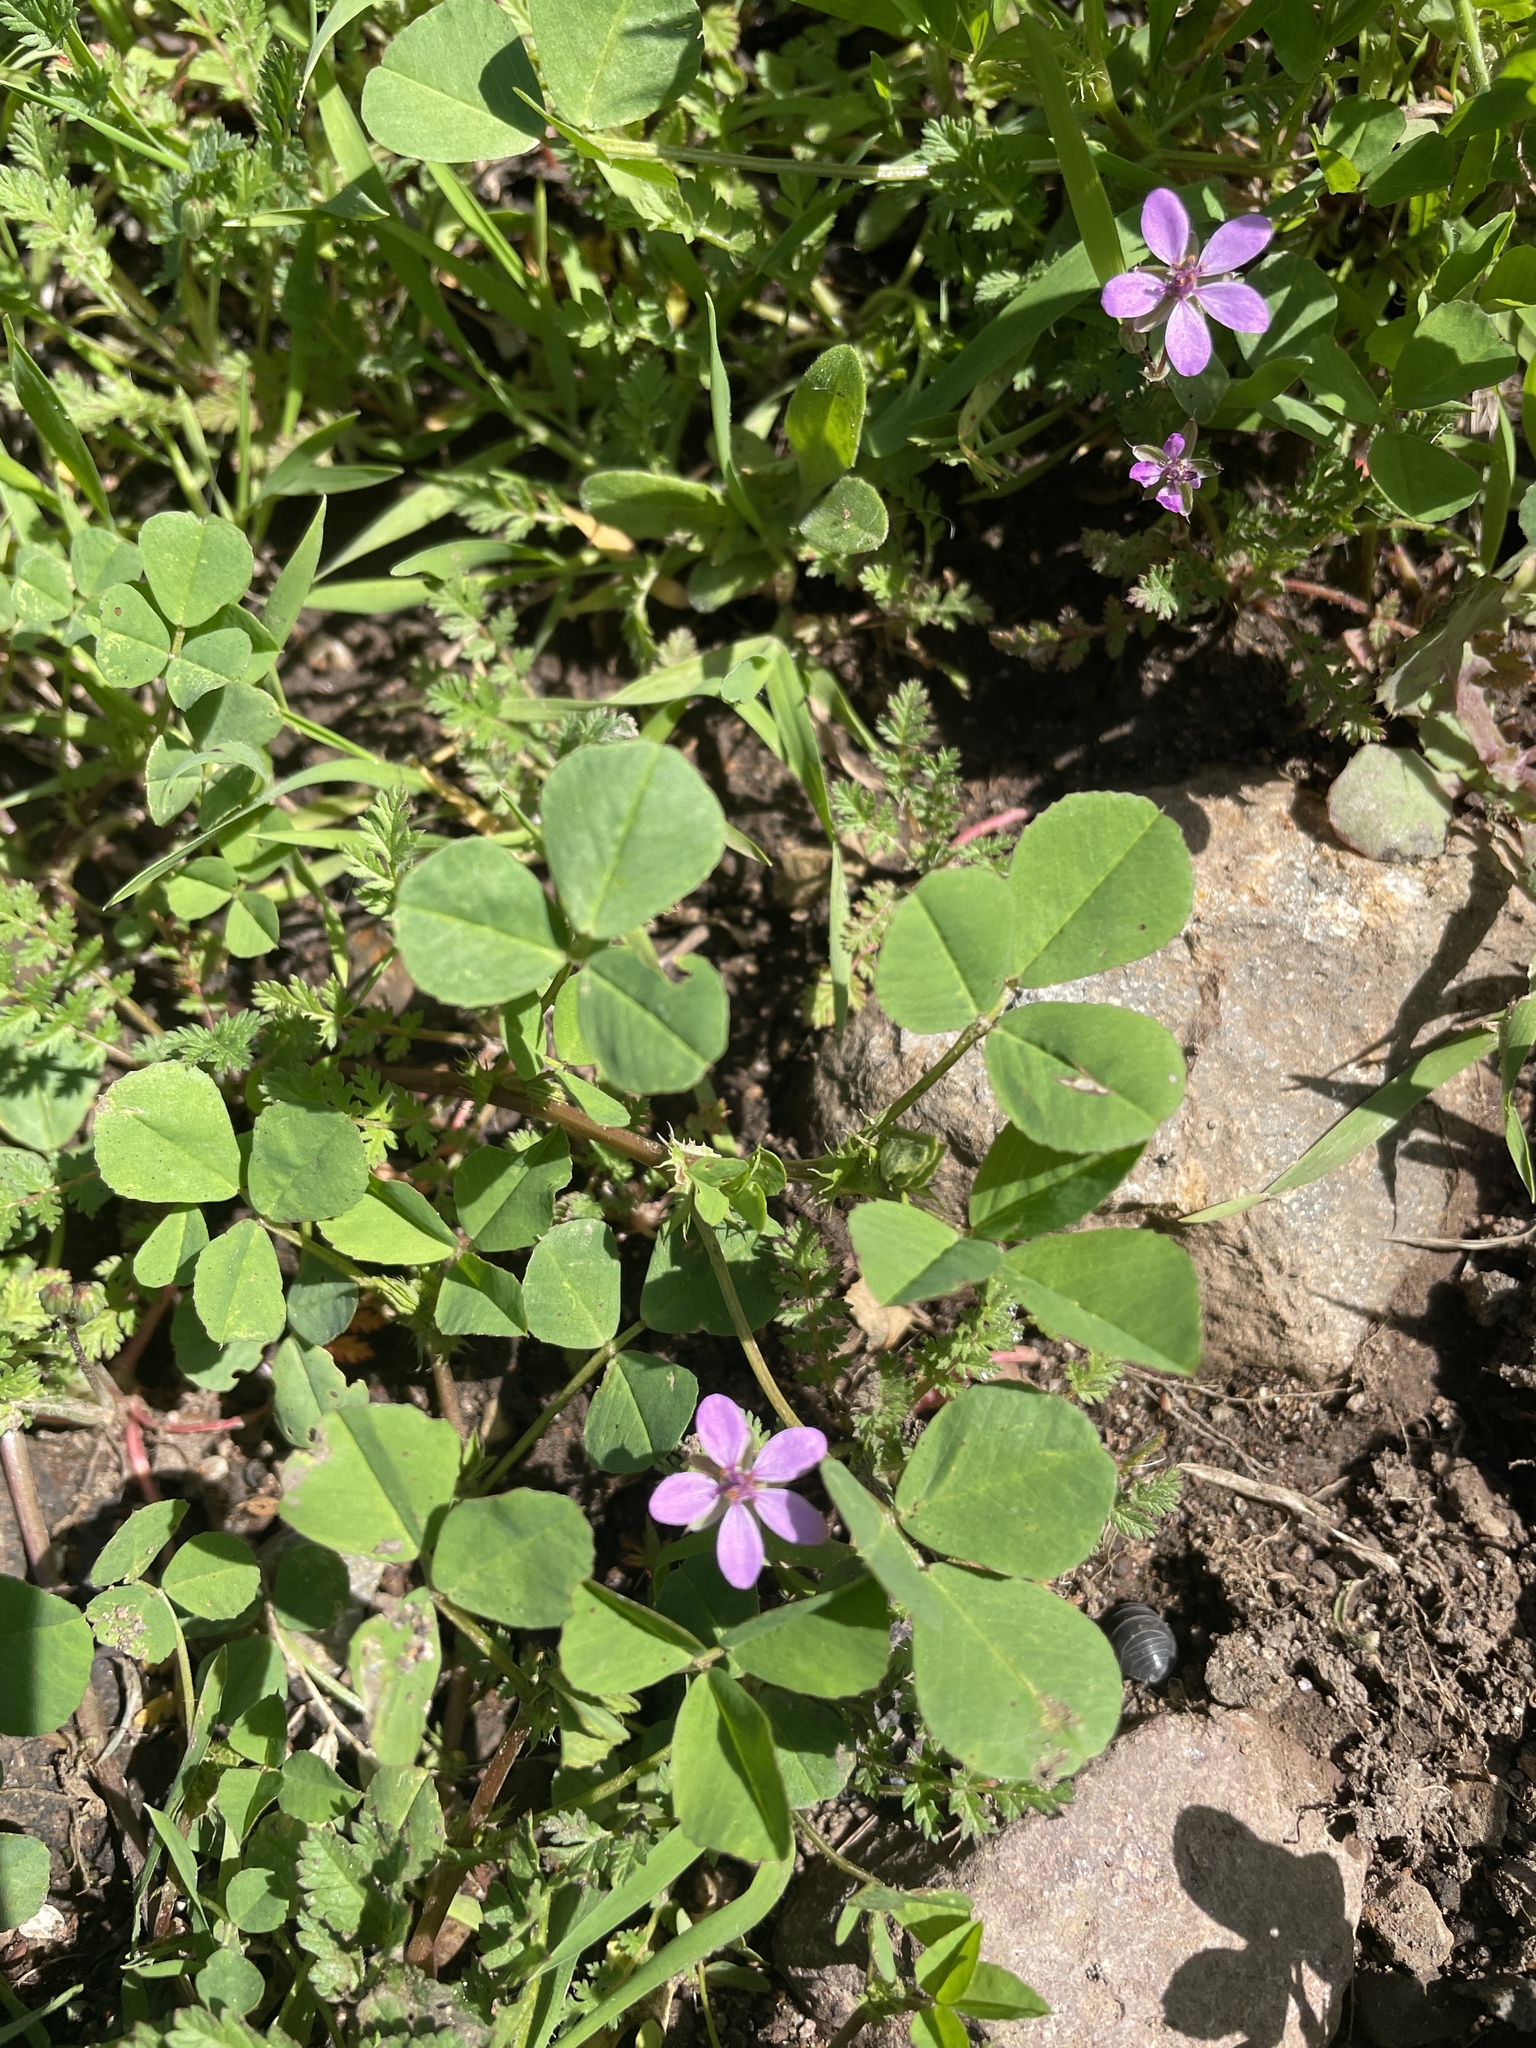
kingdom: Plantae
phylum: Tracheophyta
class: Magnoliopsida
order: Geraniales
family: Geraniaceae
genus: Erodium
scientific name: Erodium cicutarium
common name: Common stork's-bill
